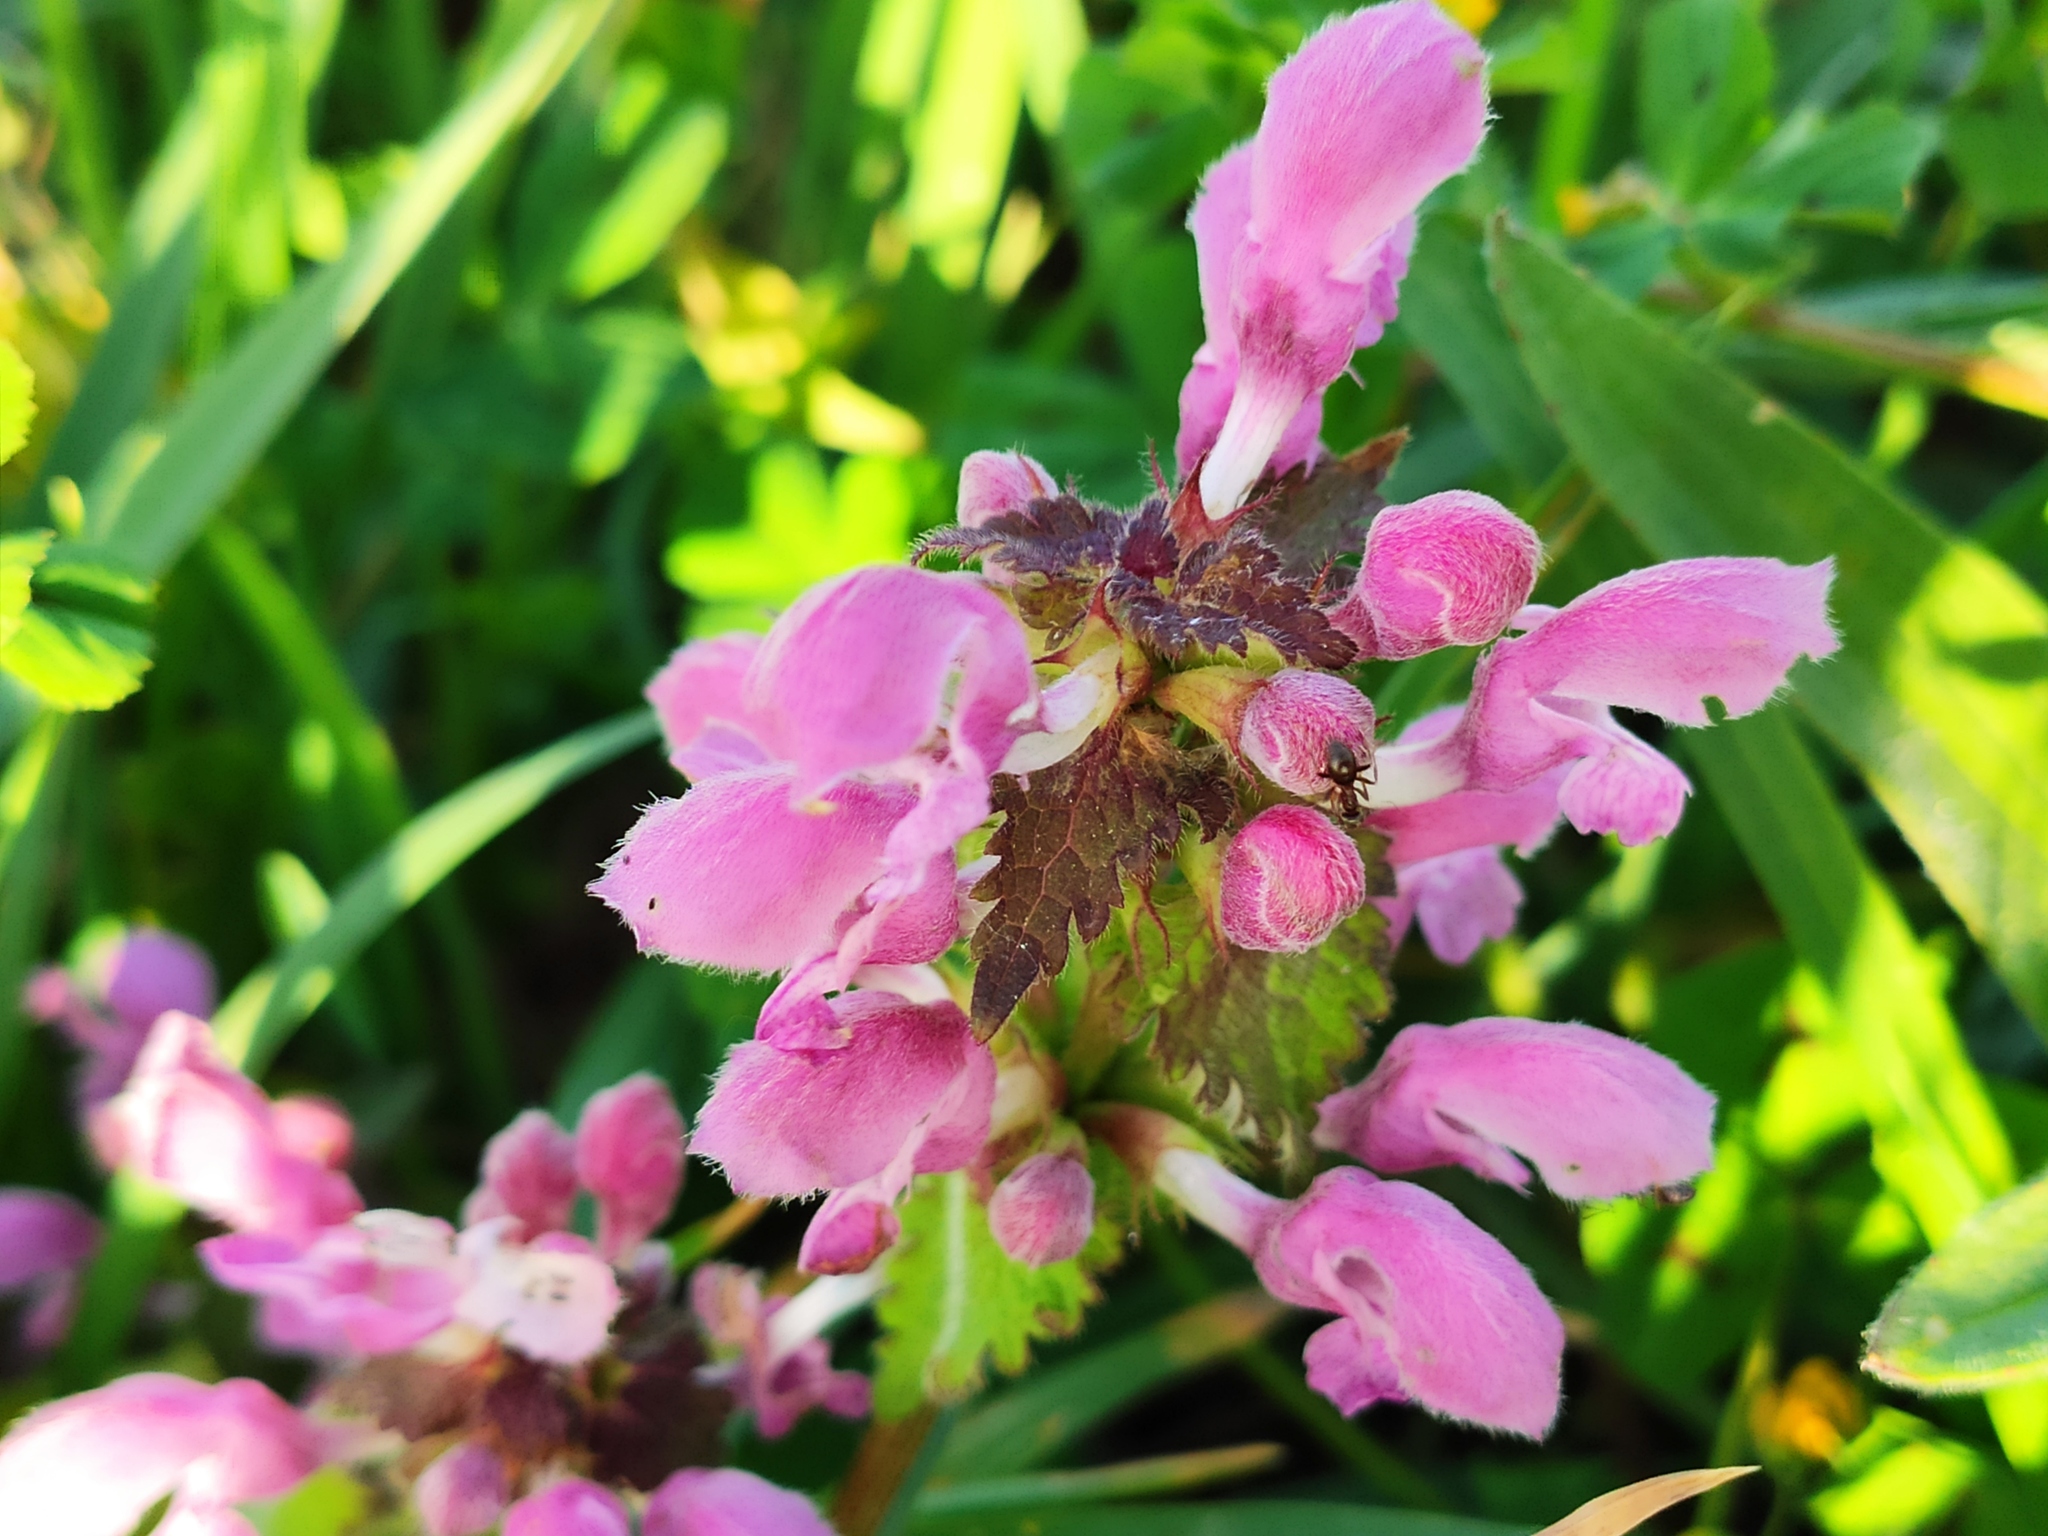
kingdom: Plantae
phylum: Tracheophyta
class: Magnoliopsida
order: Lamiales
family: Lamiaceae
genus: Lamium
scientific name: Lamium maculatum
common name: Spotted dead-nettle
